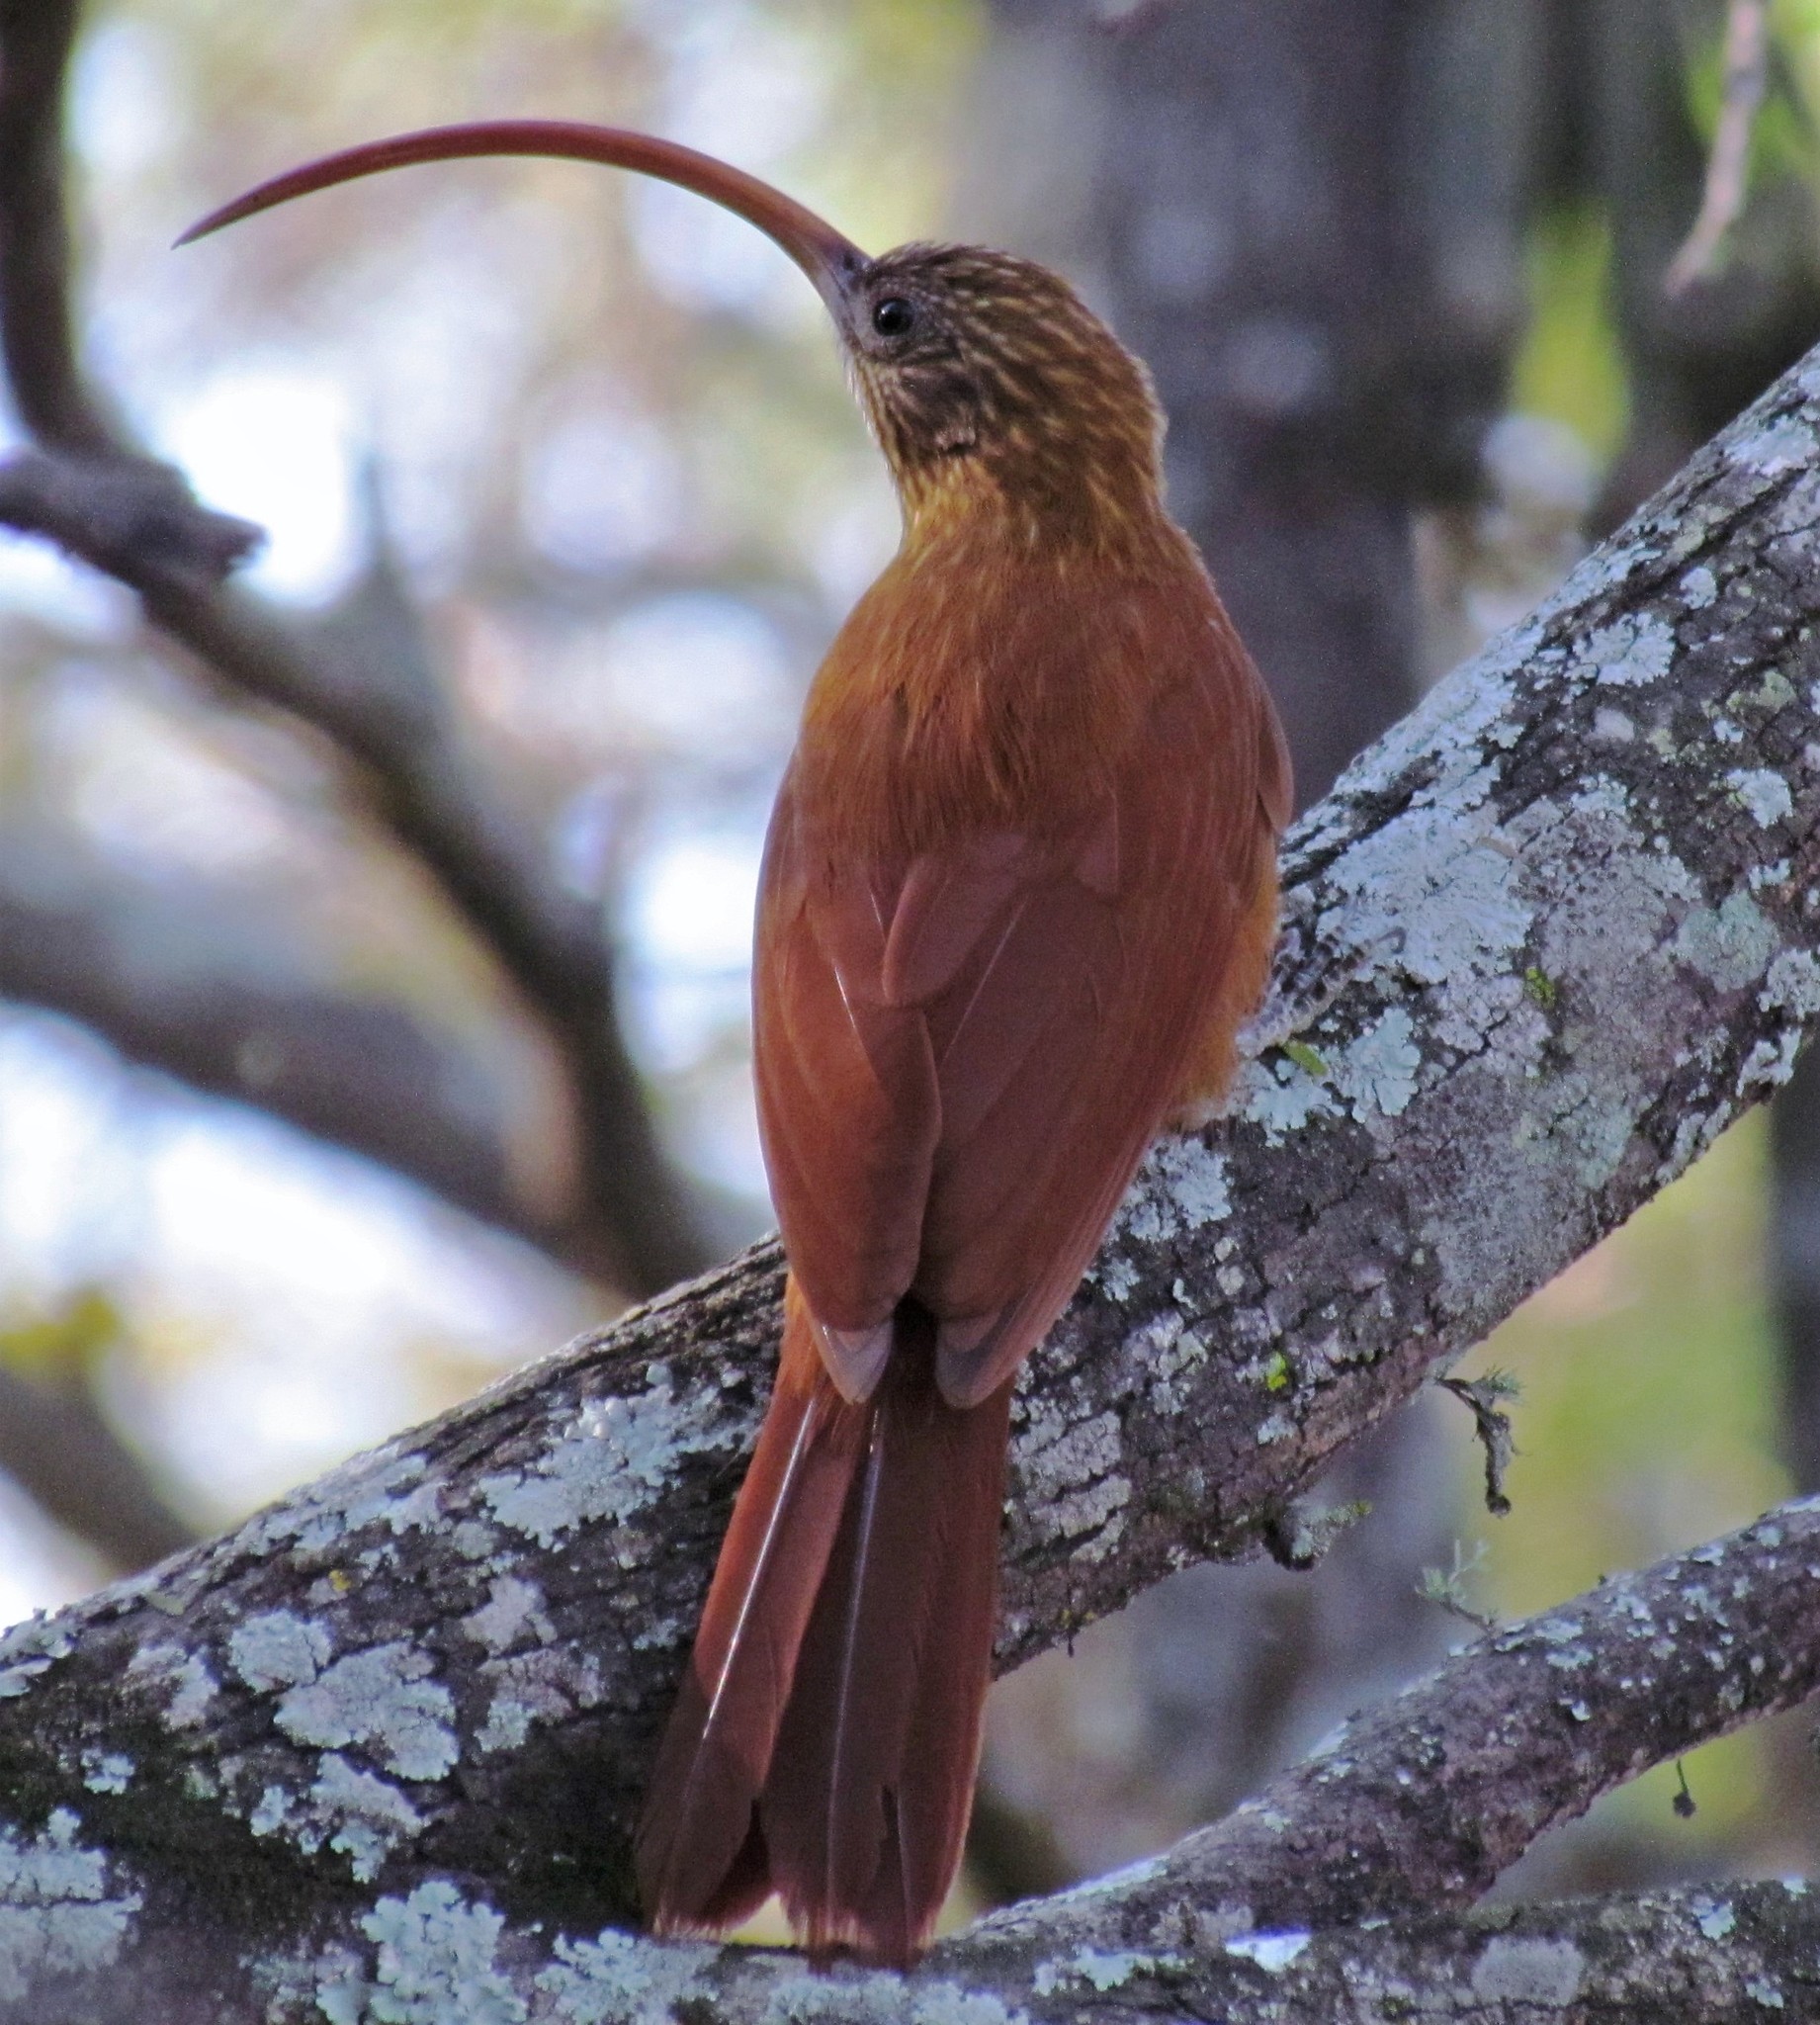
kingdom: Animalia
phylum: Chordata
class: Aves
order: Passeriformes
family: Furnariidae
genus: Campylorhamphus
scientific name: Campylorhamphus trochilirostris
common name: Red-billed scythebill
